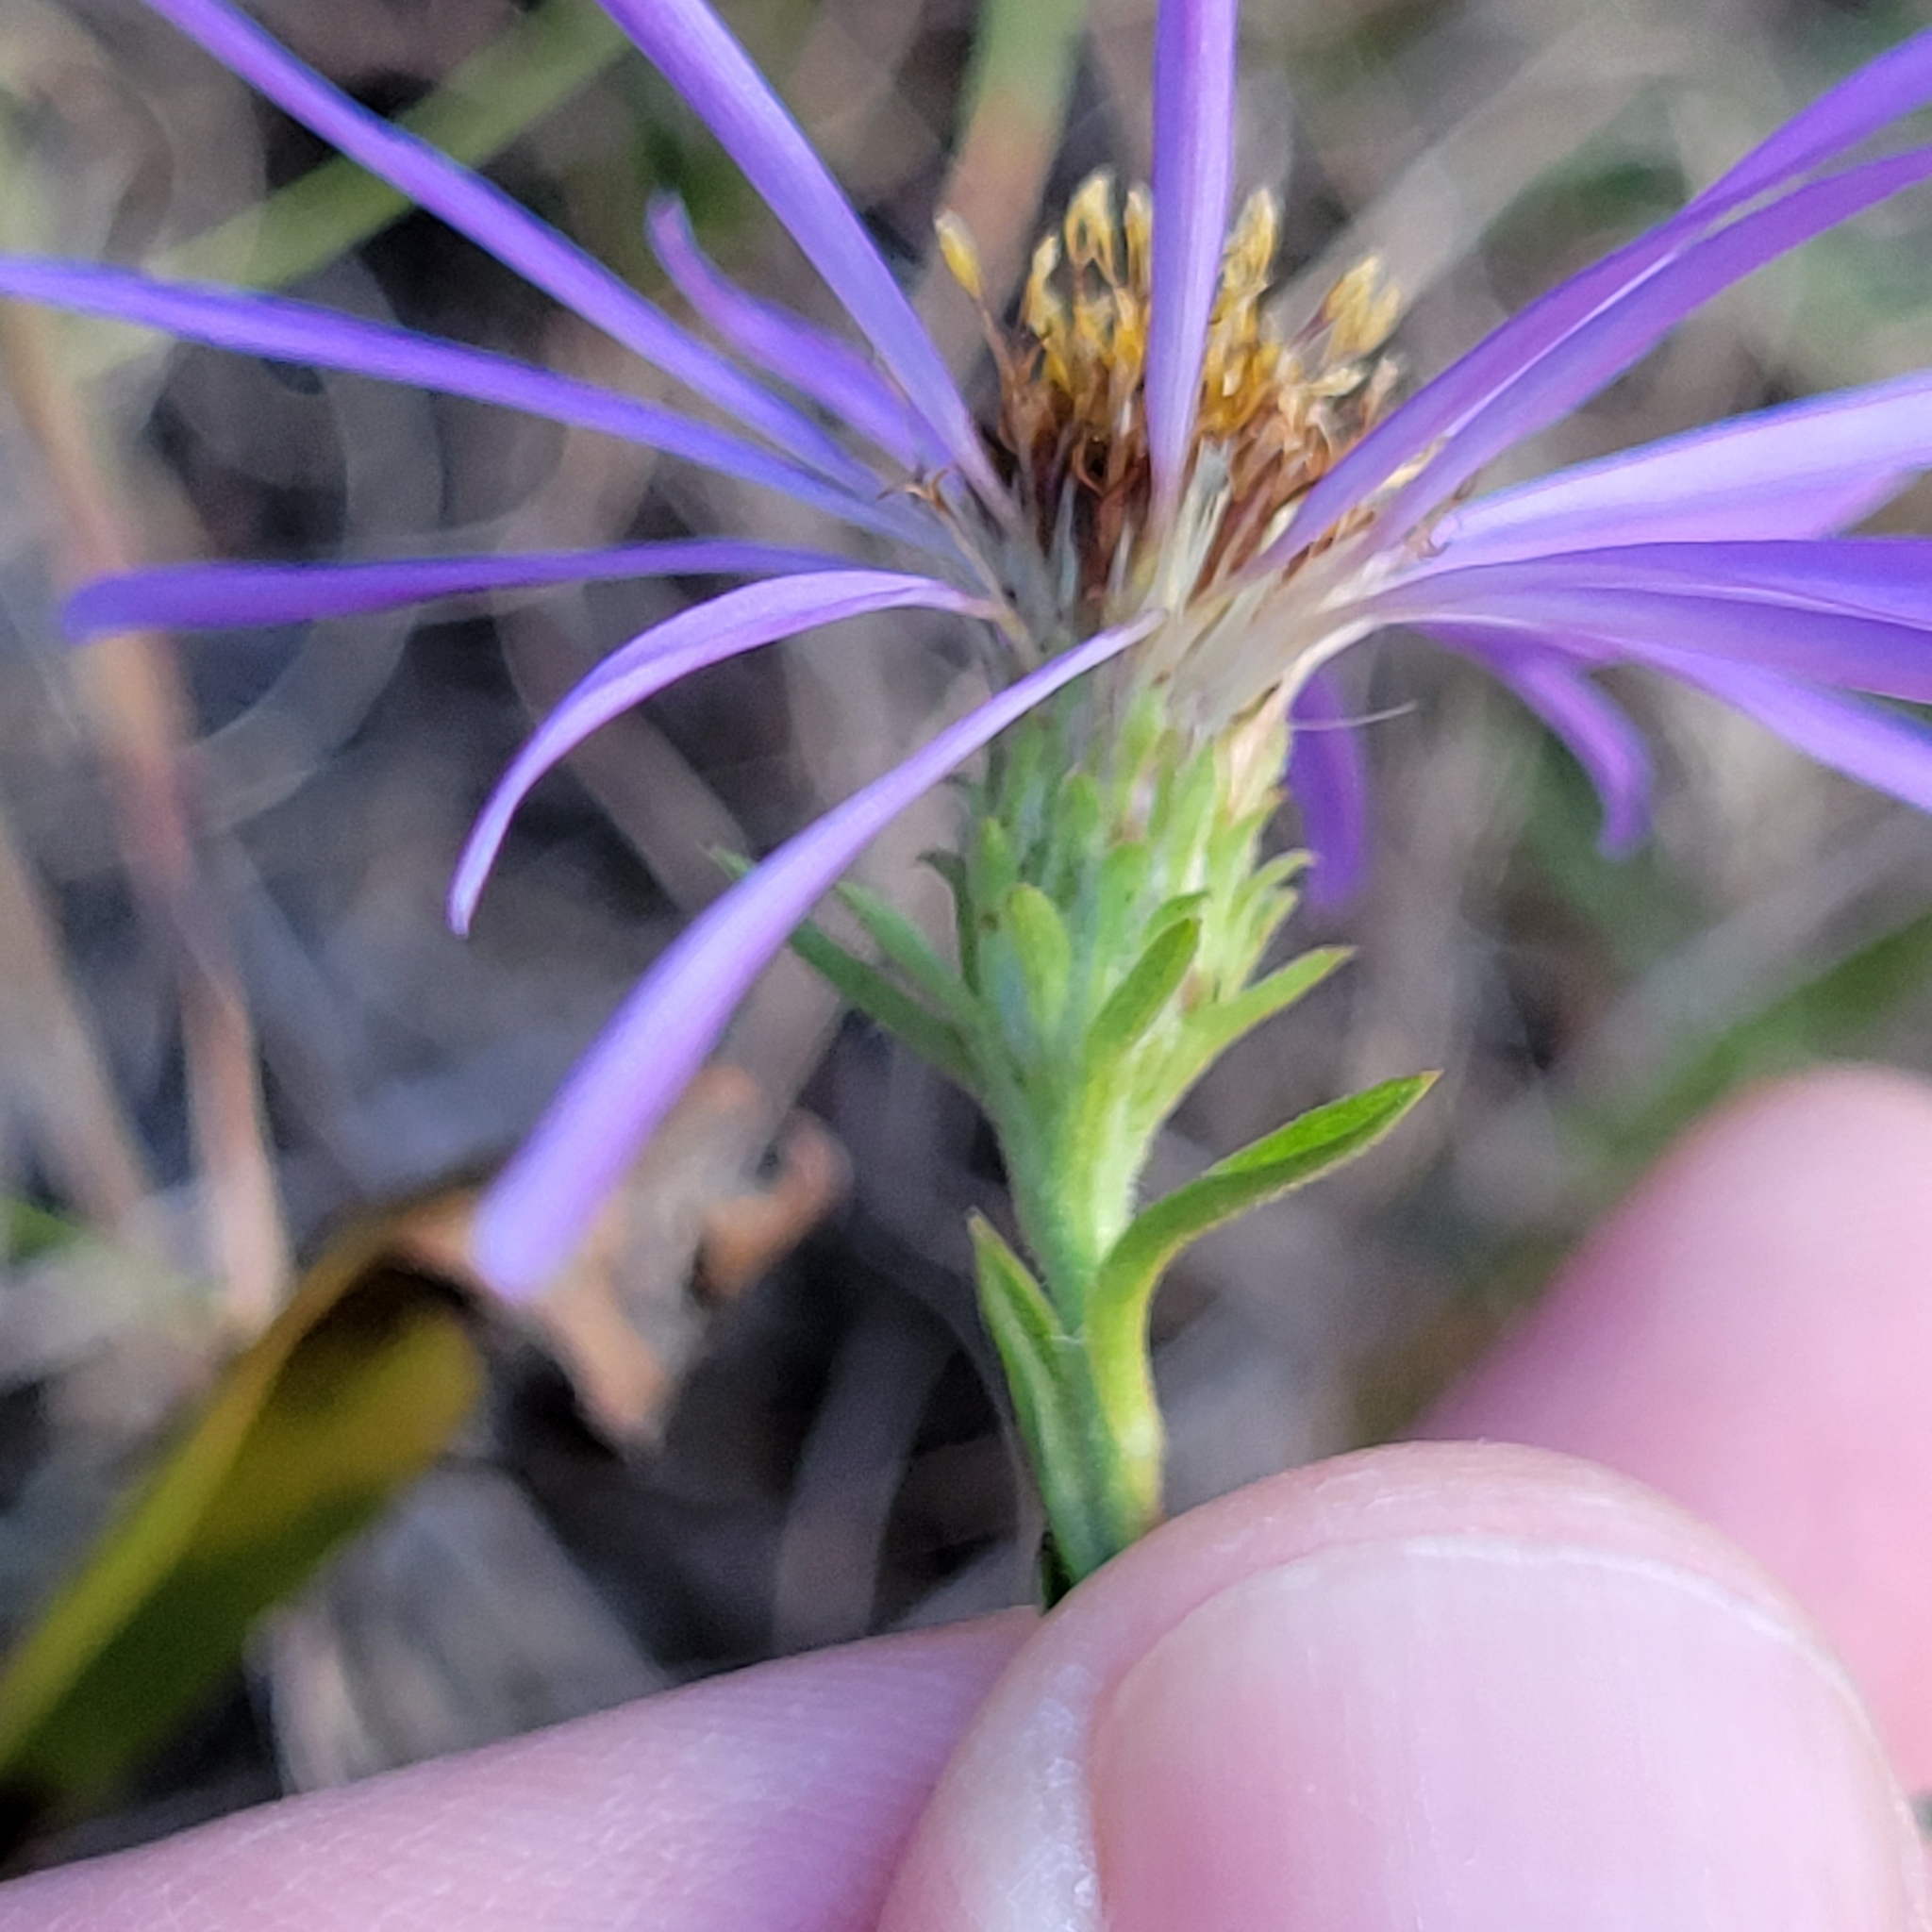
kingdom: Plantae
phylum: Tracheophyta
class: Magnoliopsida
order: Asterales
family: Asteraceae
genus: Eurybia
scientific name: Eurybia spectabilis
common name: Low showy aster
